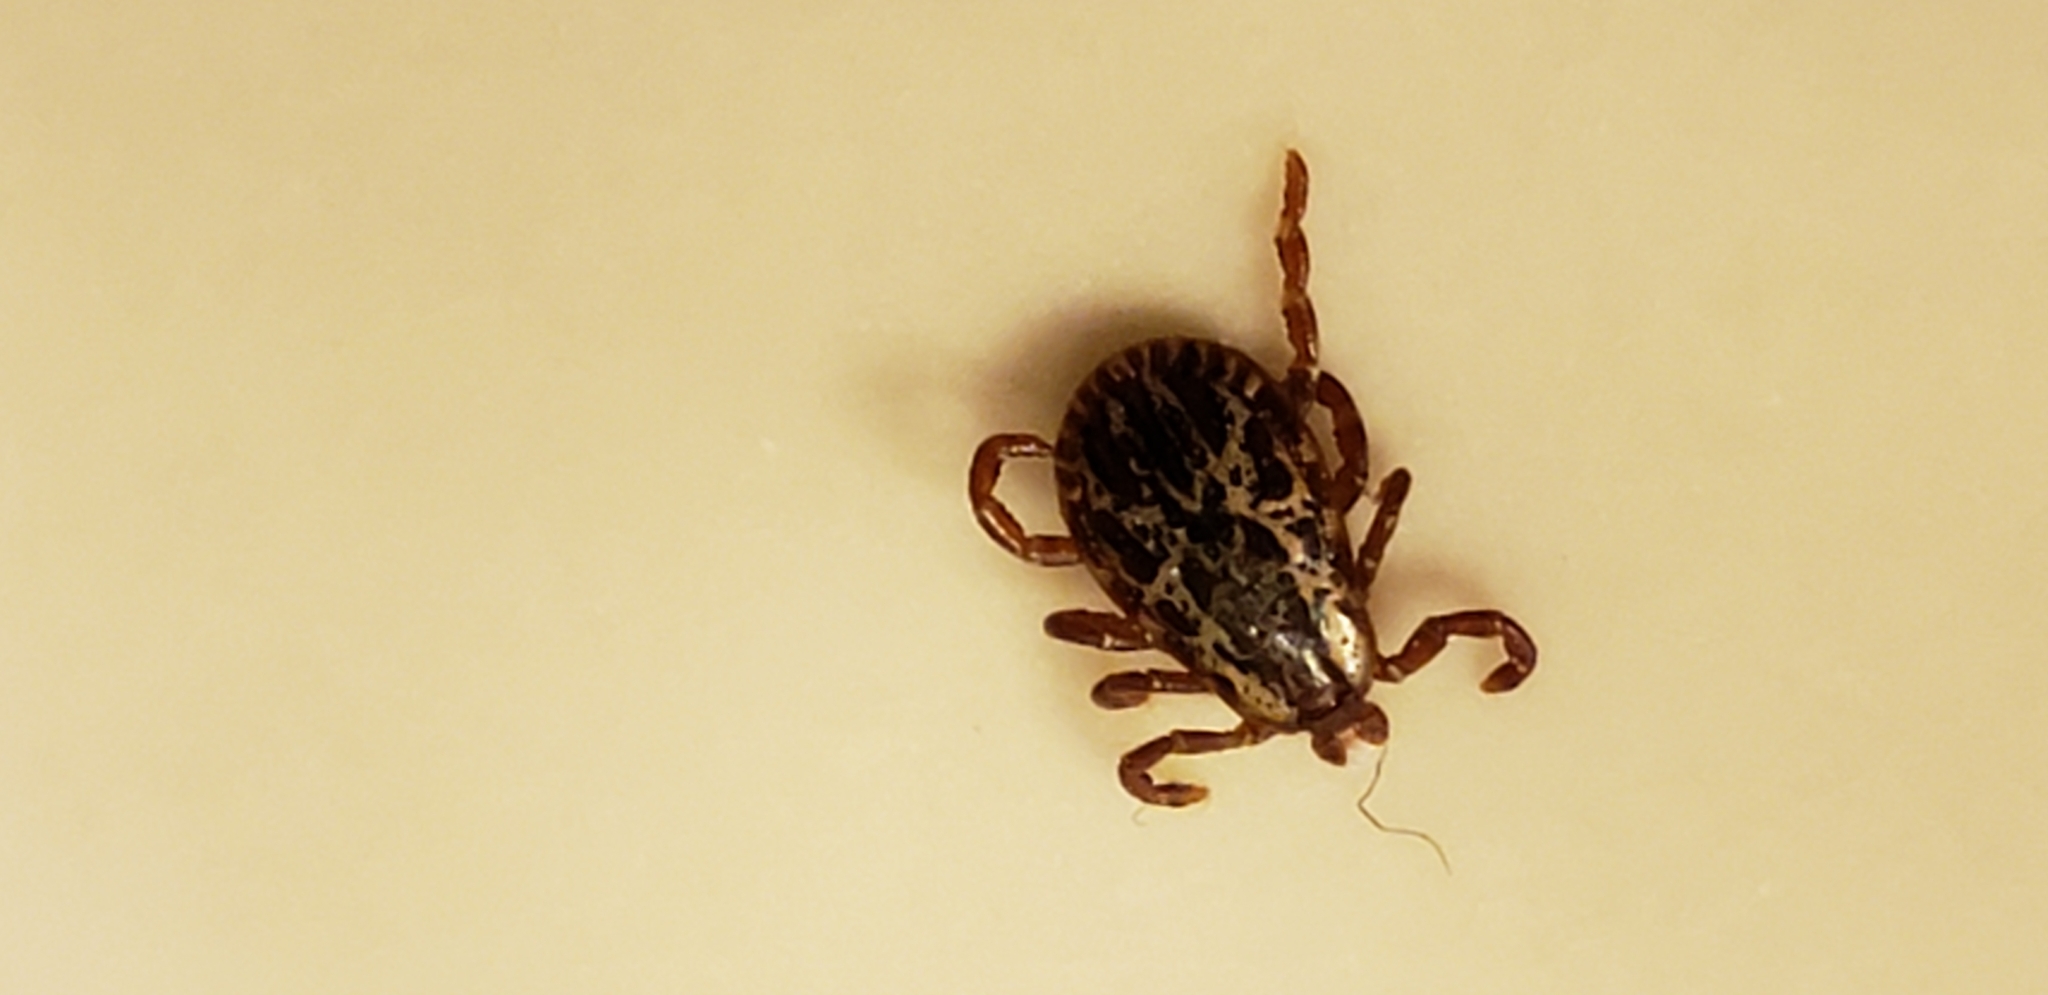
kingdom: Animalia
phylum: Arthropoda
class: Arachnida
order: Ixodida
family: Ixodidae
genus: Dermacentor
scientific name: Dermacentor variabilis
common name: American dog tick
